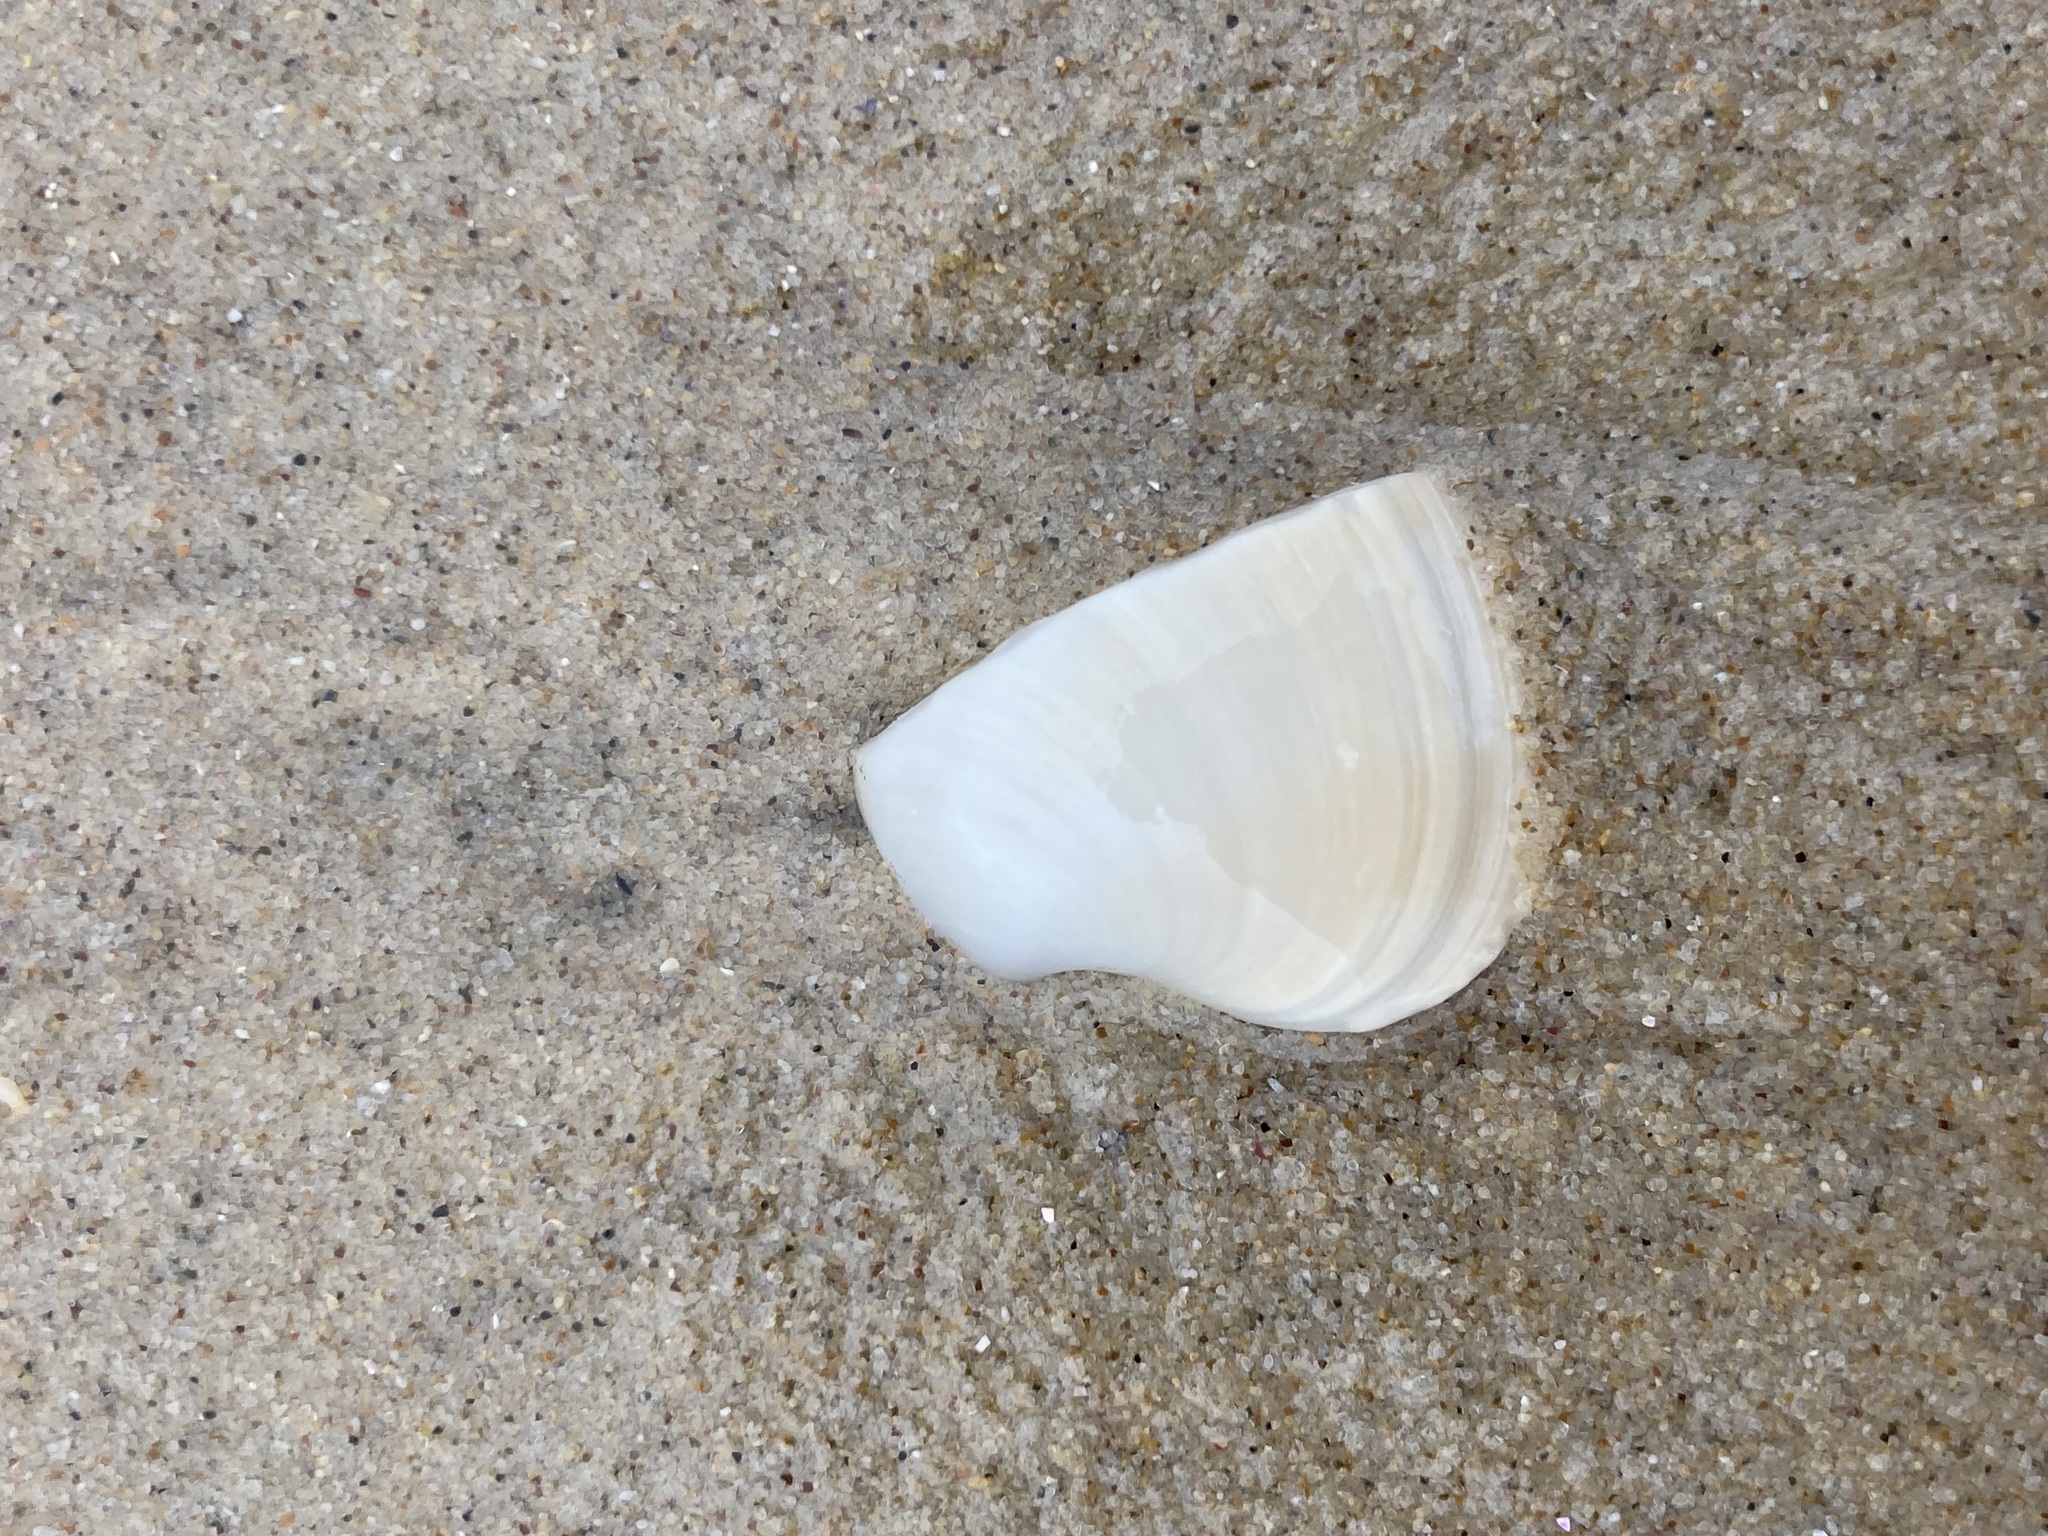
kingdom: Animalia
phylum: Mollusca
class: Bivalvia
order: Venerida
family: Veneridae
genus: Bassina
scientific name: Bassina pachyphylla
